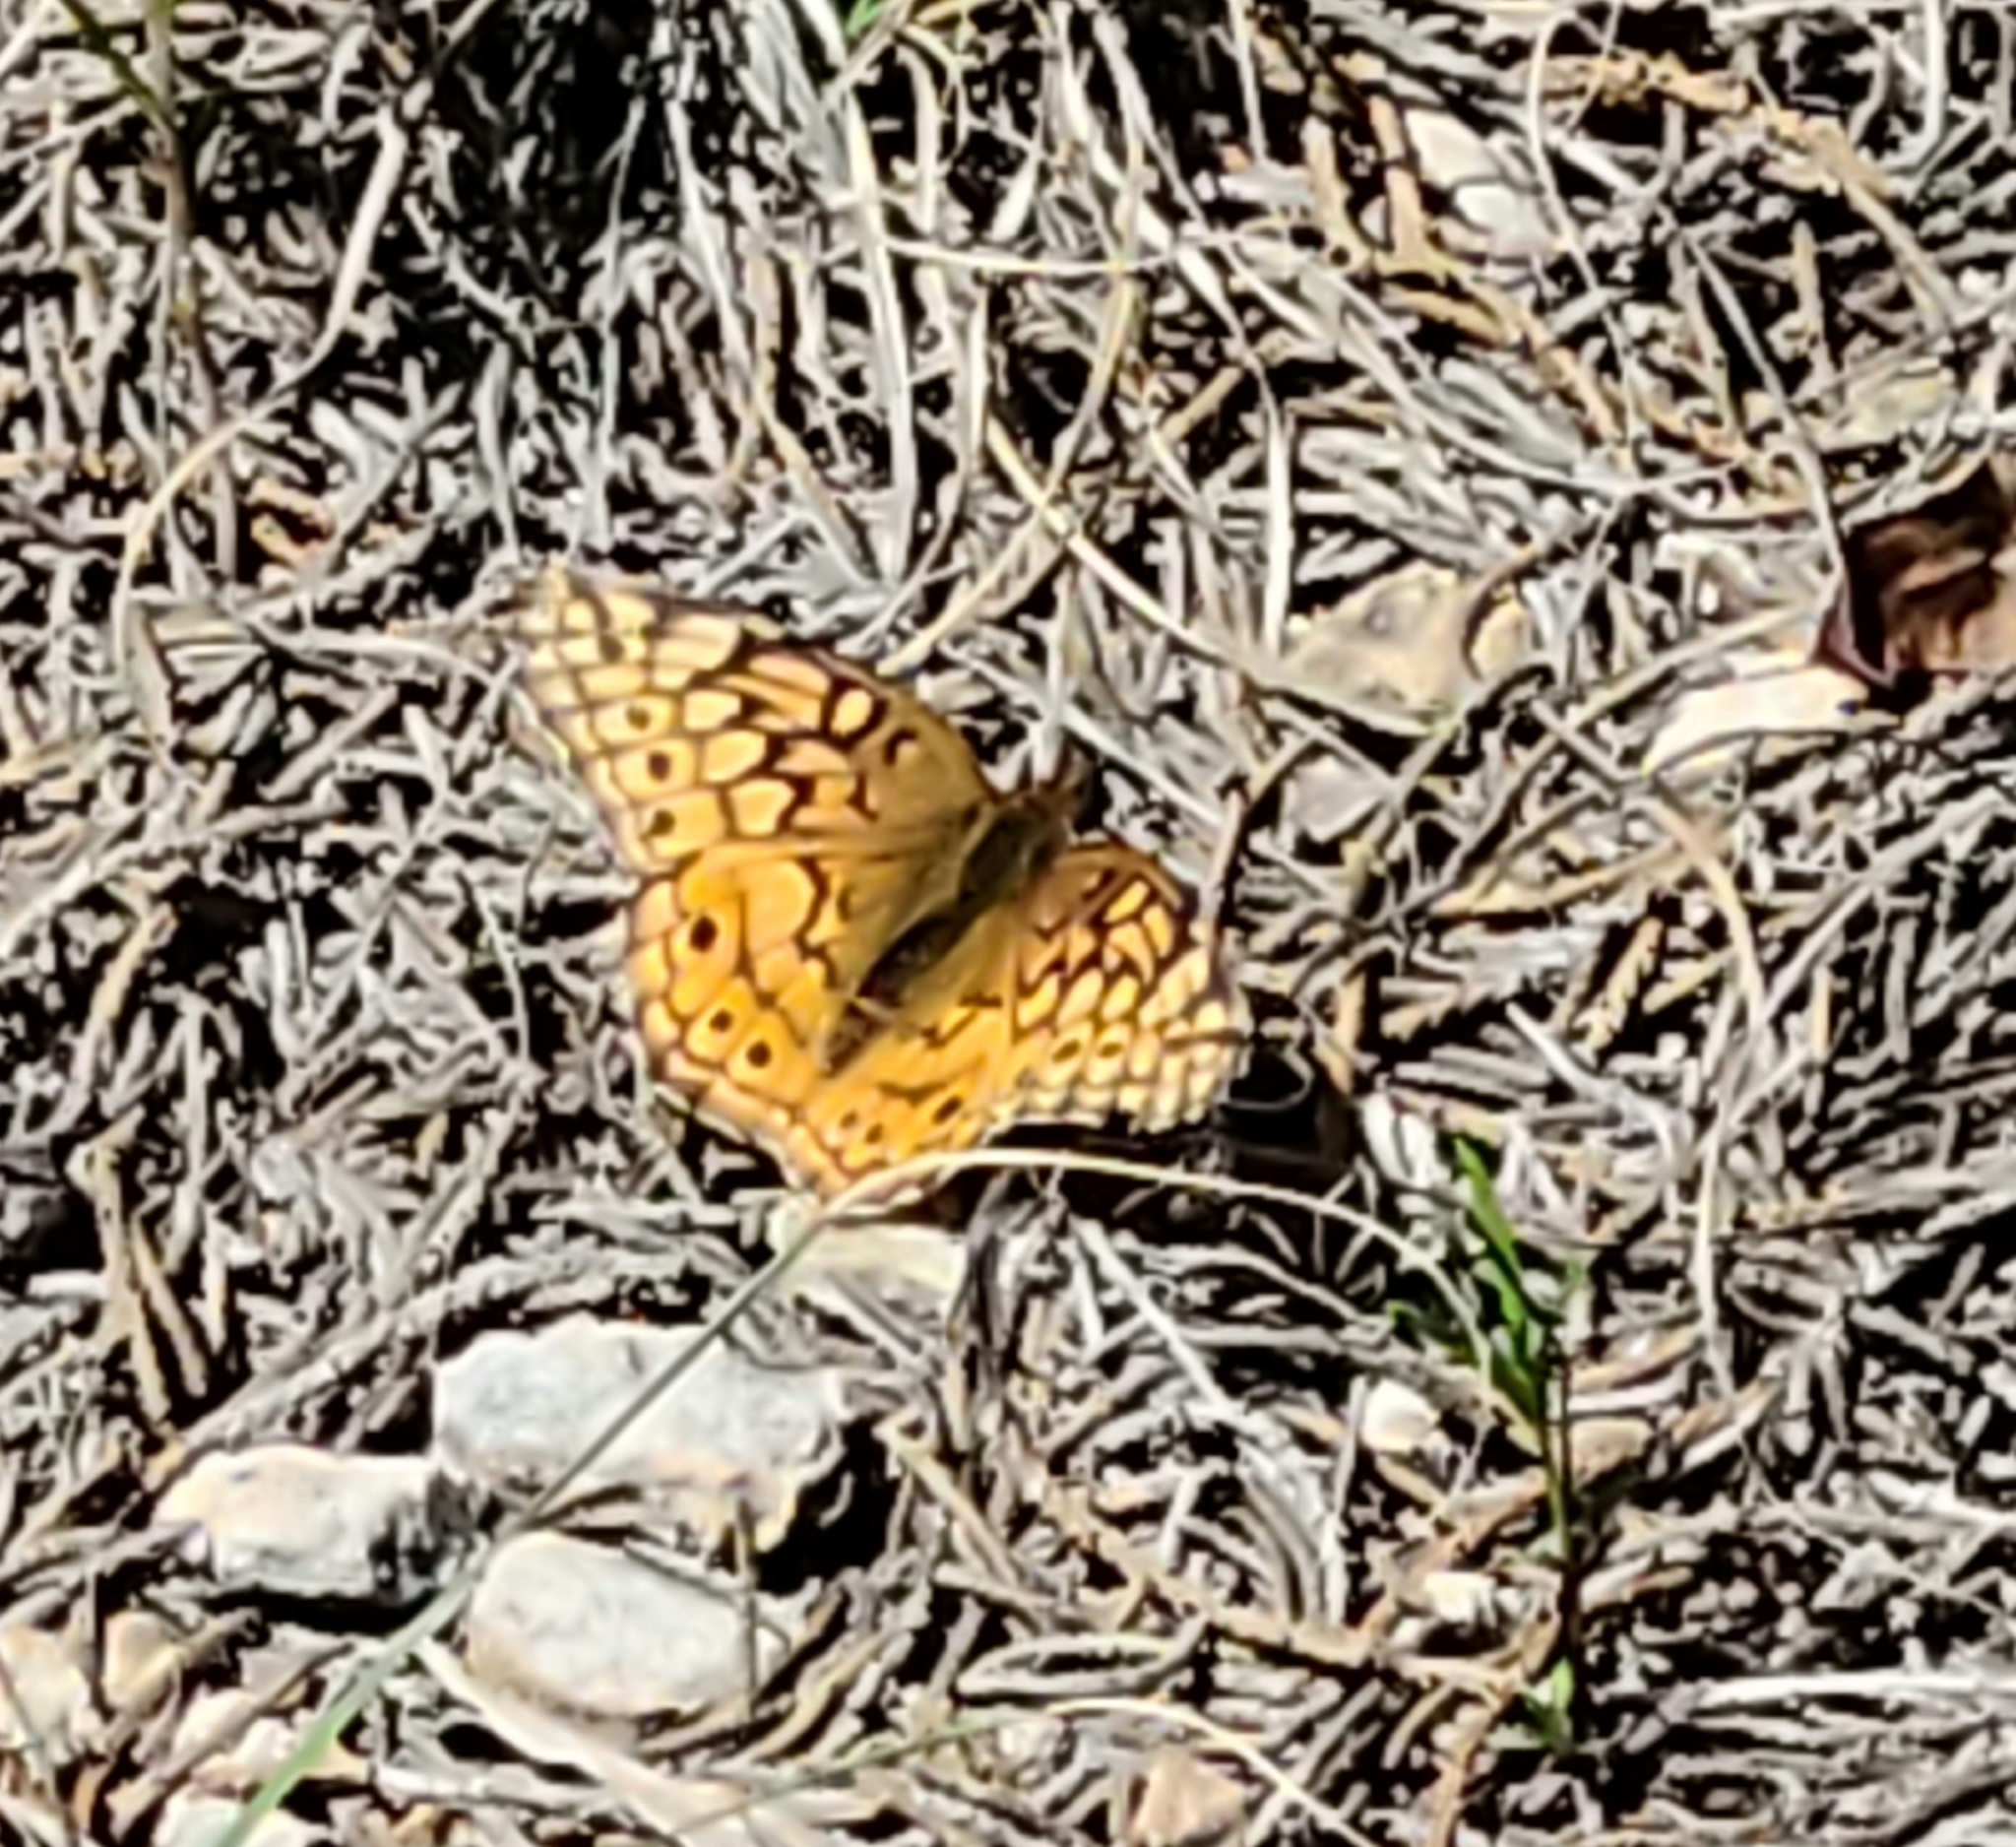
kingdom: Animalia
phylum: Arthropoda
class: Insecta
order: Lepidoptera
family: Nymphalidae
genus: Euptoieta
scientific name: Euptoieta claudia
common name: Variegated fritillary
